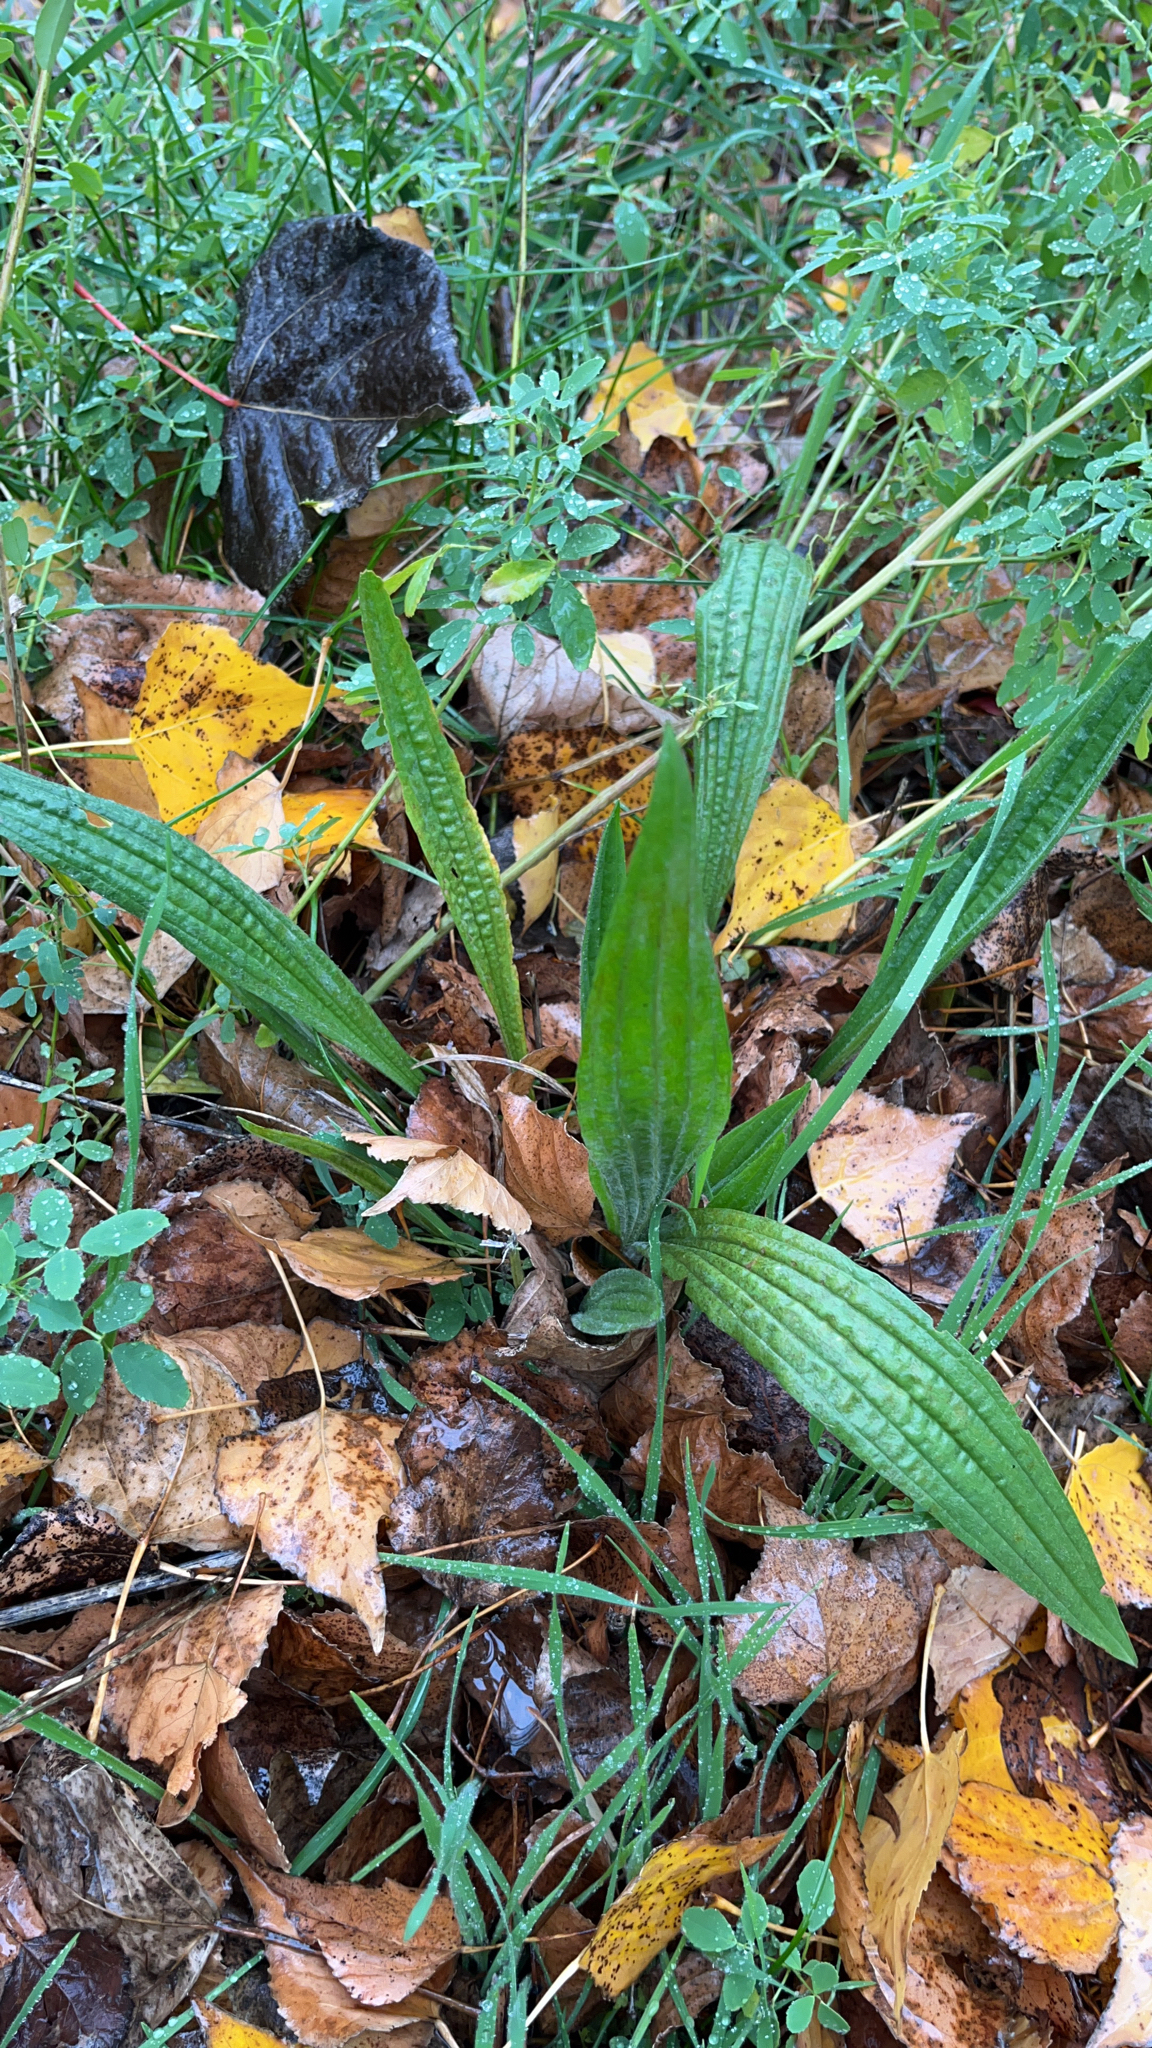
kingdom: Plantae
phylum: Tracheophyta
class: Magnoliopsida
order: Lamiales
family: Plantaginaceae
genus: Plantago
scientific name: Plantago lanceolata
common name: Ribwort plantain
